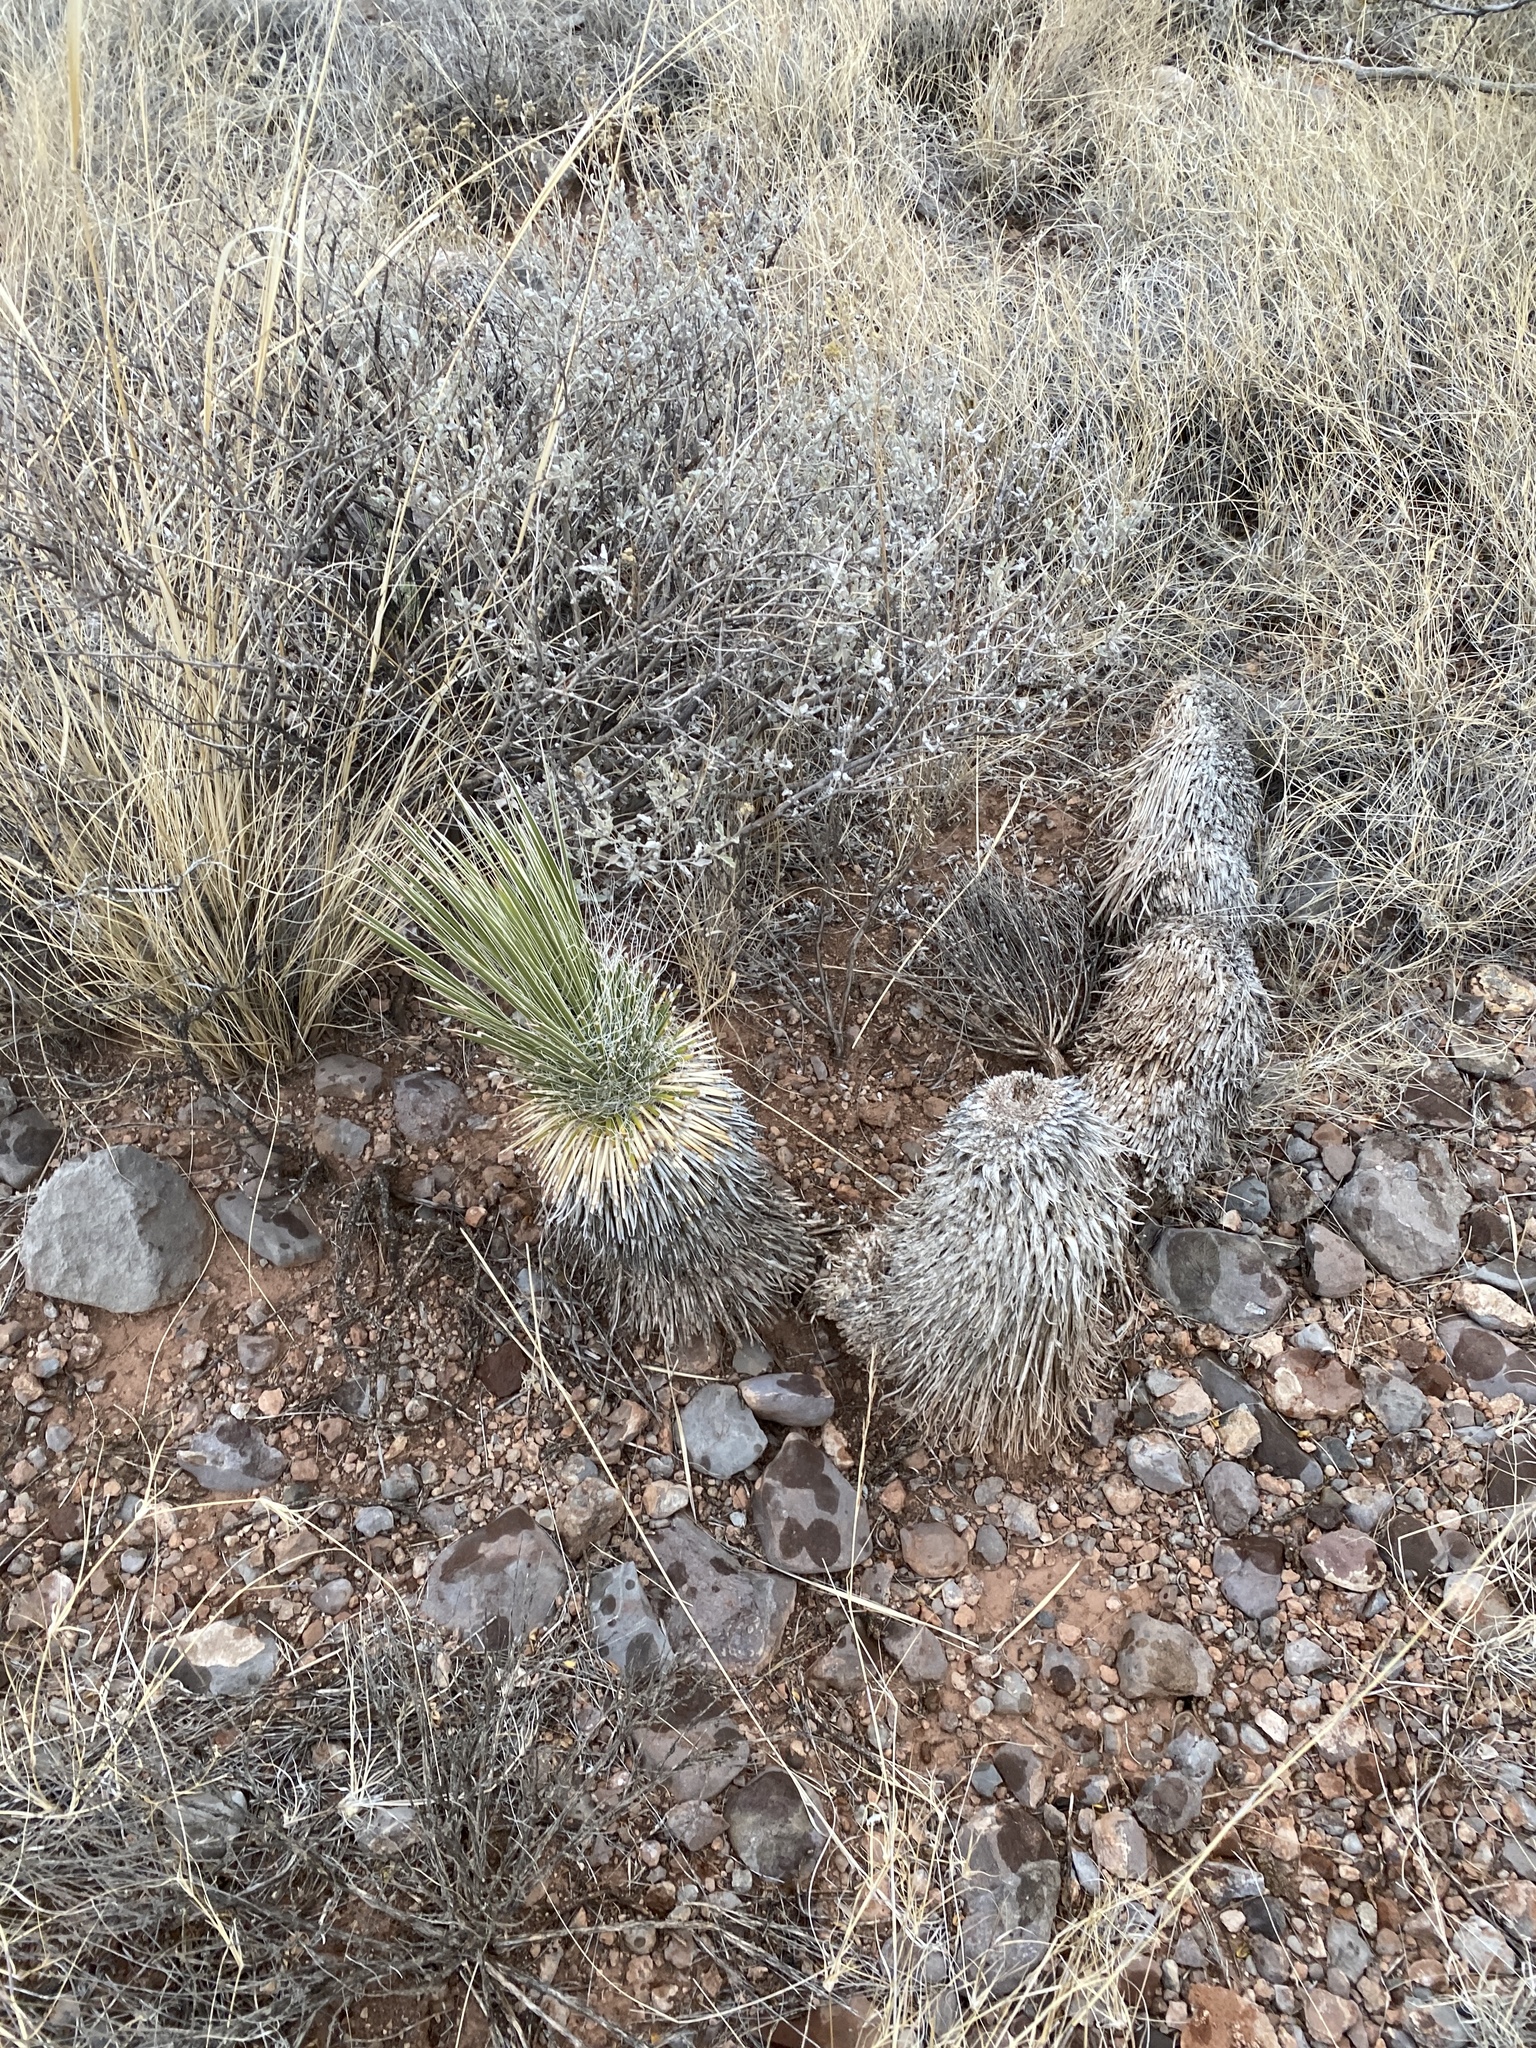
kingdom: Plantae
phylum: Tracheophyta
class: Liliopsida
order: Asparagales
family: Asparagaceae
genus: Yucca
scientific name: Yucca elata
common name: Palmella
